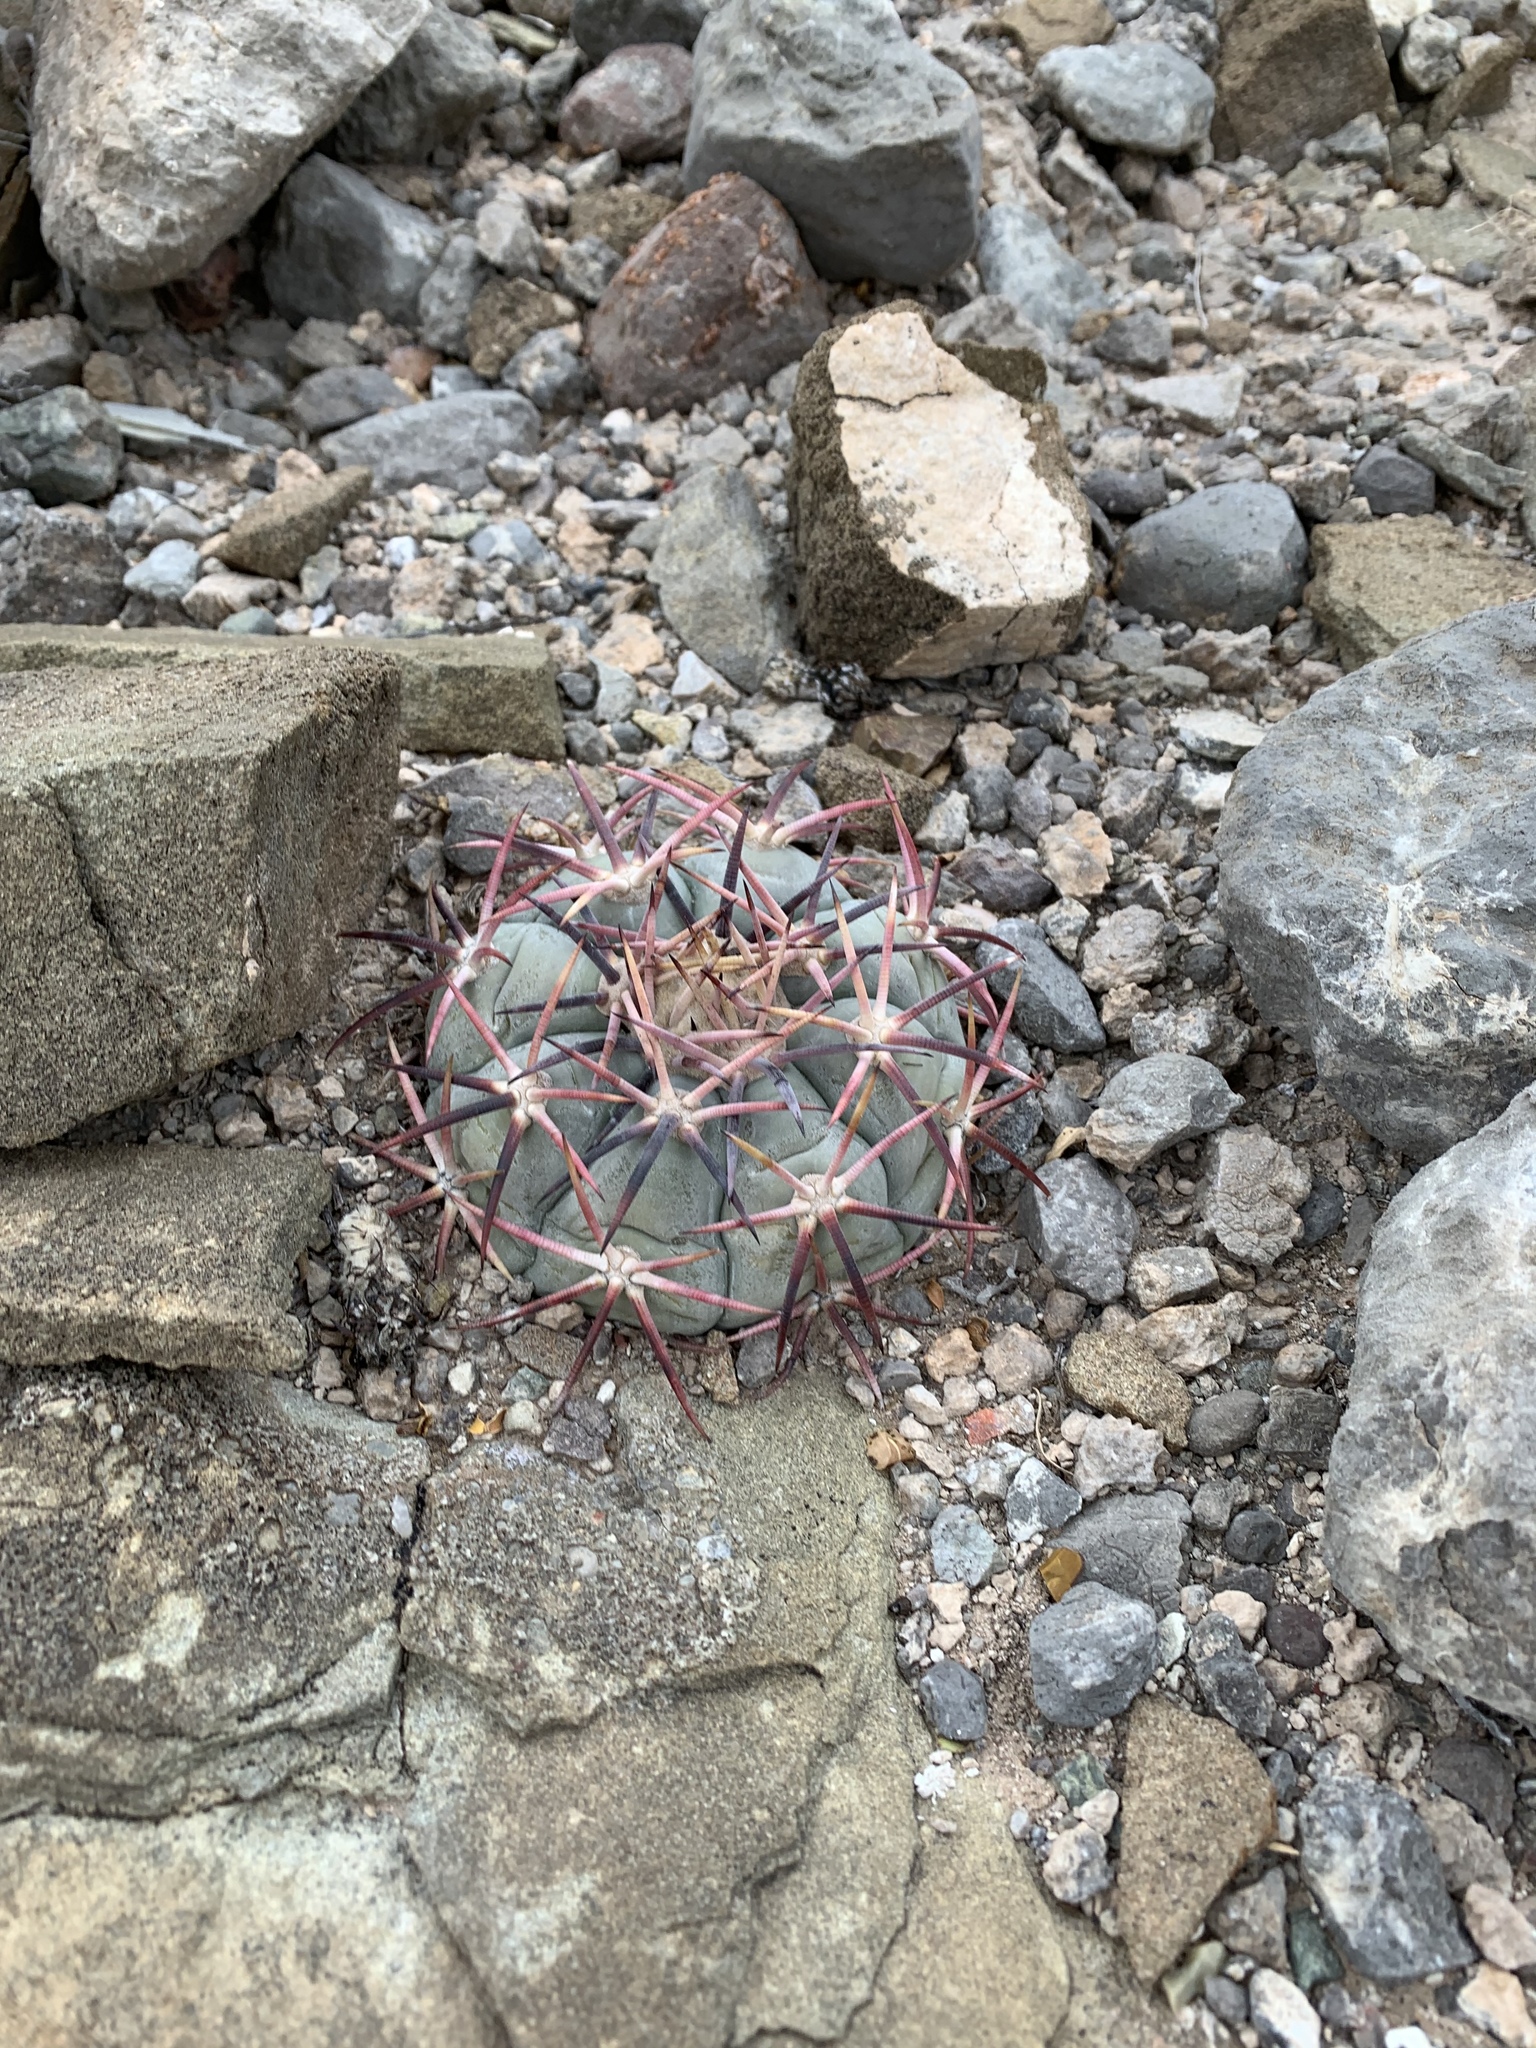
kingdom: Plantae
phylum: Tracheophyta
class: Magnoliopsida
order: Caryophyllales
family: Cactaceae
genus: Echinocactus
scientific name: Echinocactus horizonthalonius
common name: Devilshead
